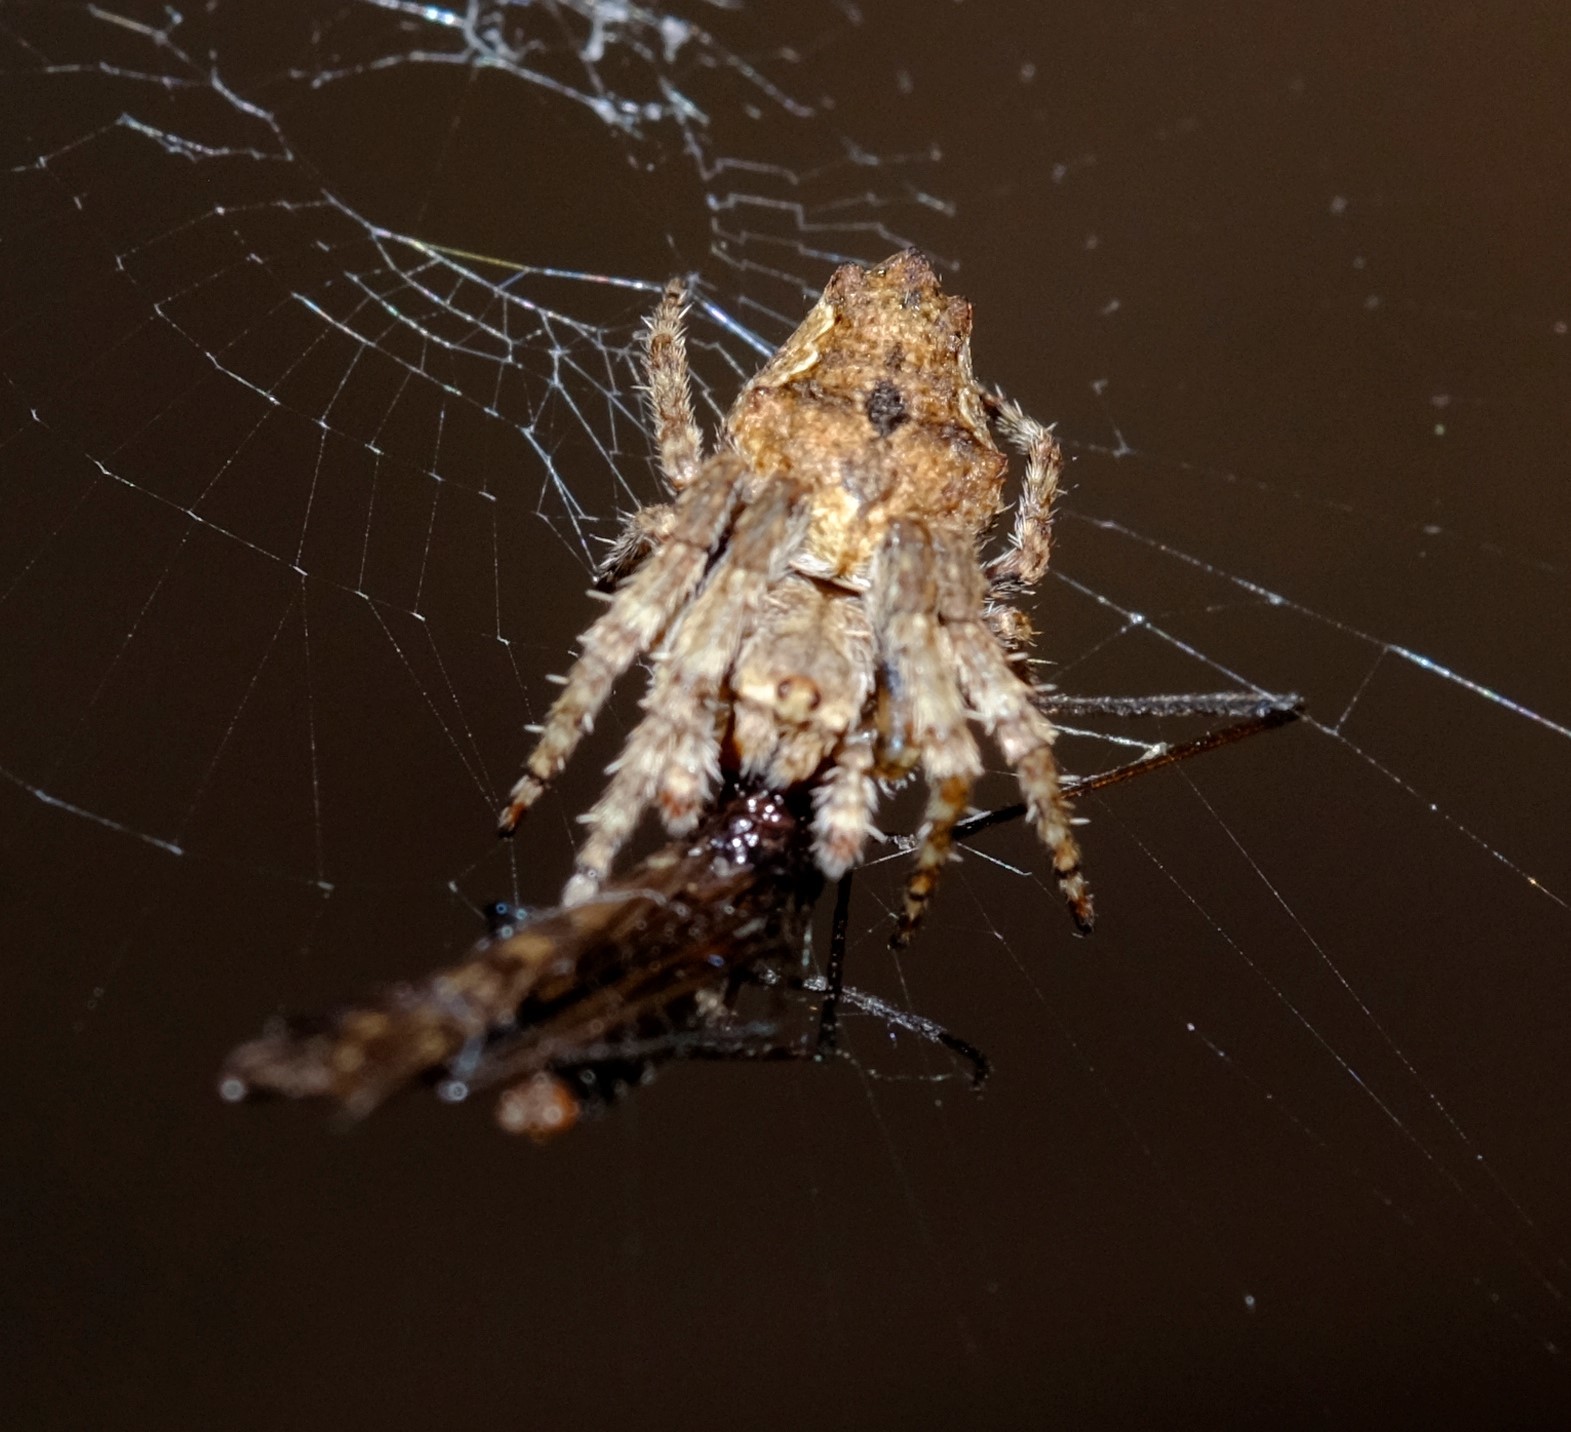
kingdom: Animalia
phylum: Arthropoda
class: Arachnida
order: Araneae
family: Araneidae
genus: Eriophora
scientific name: Eriophora pustulosa
